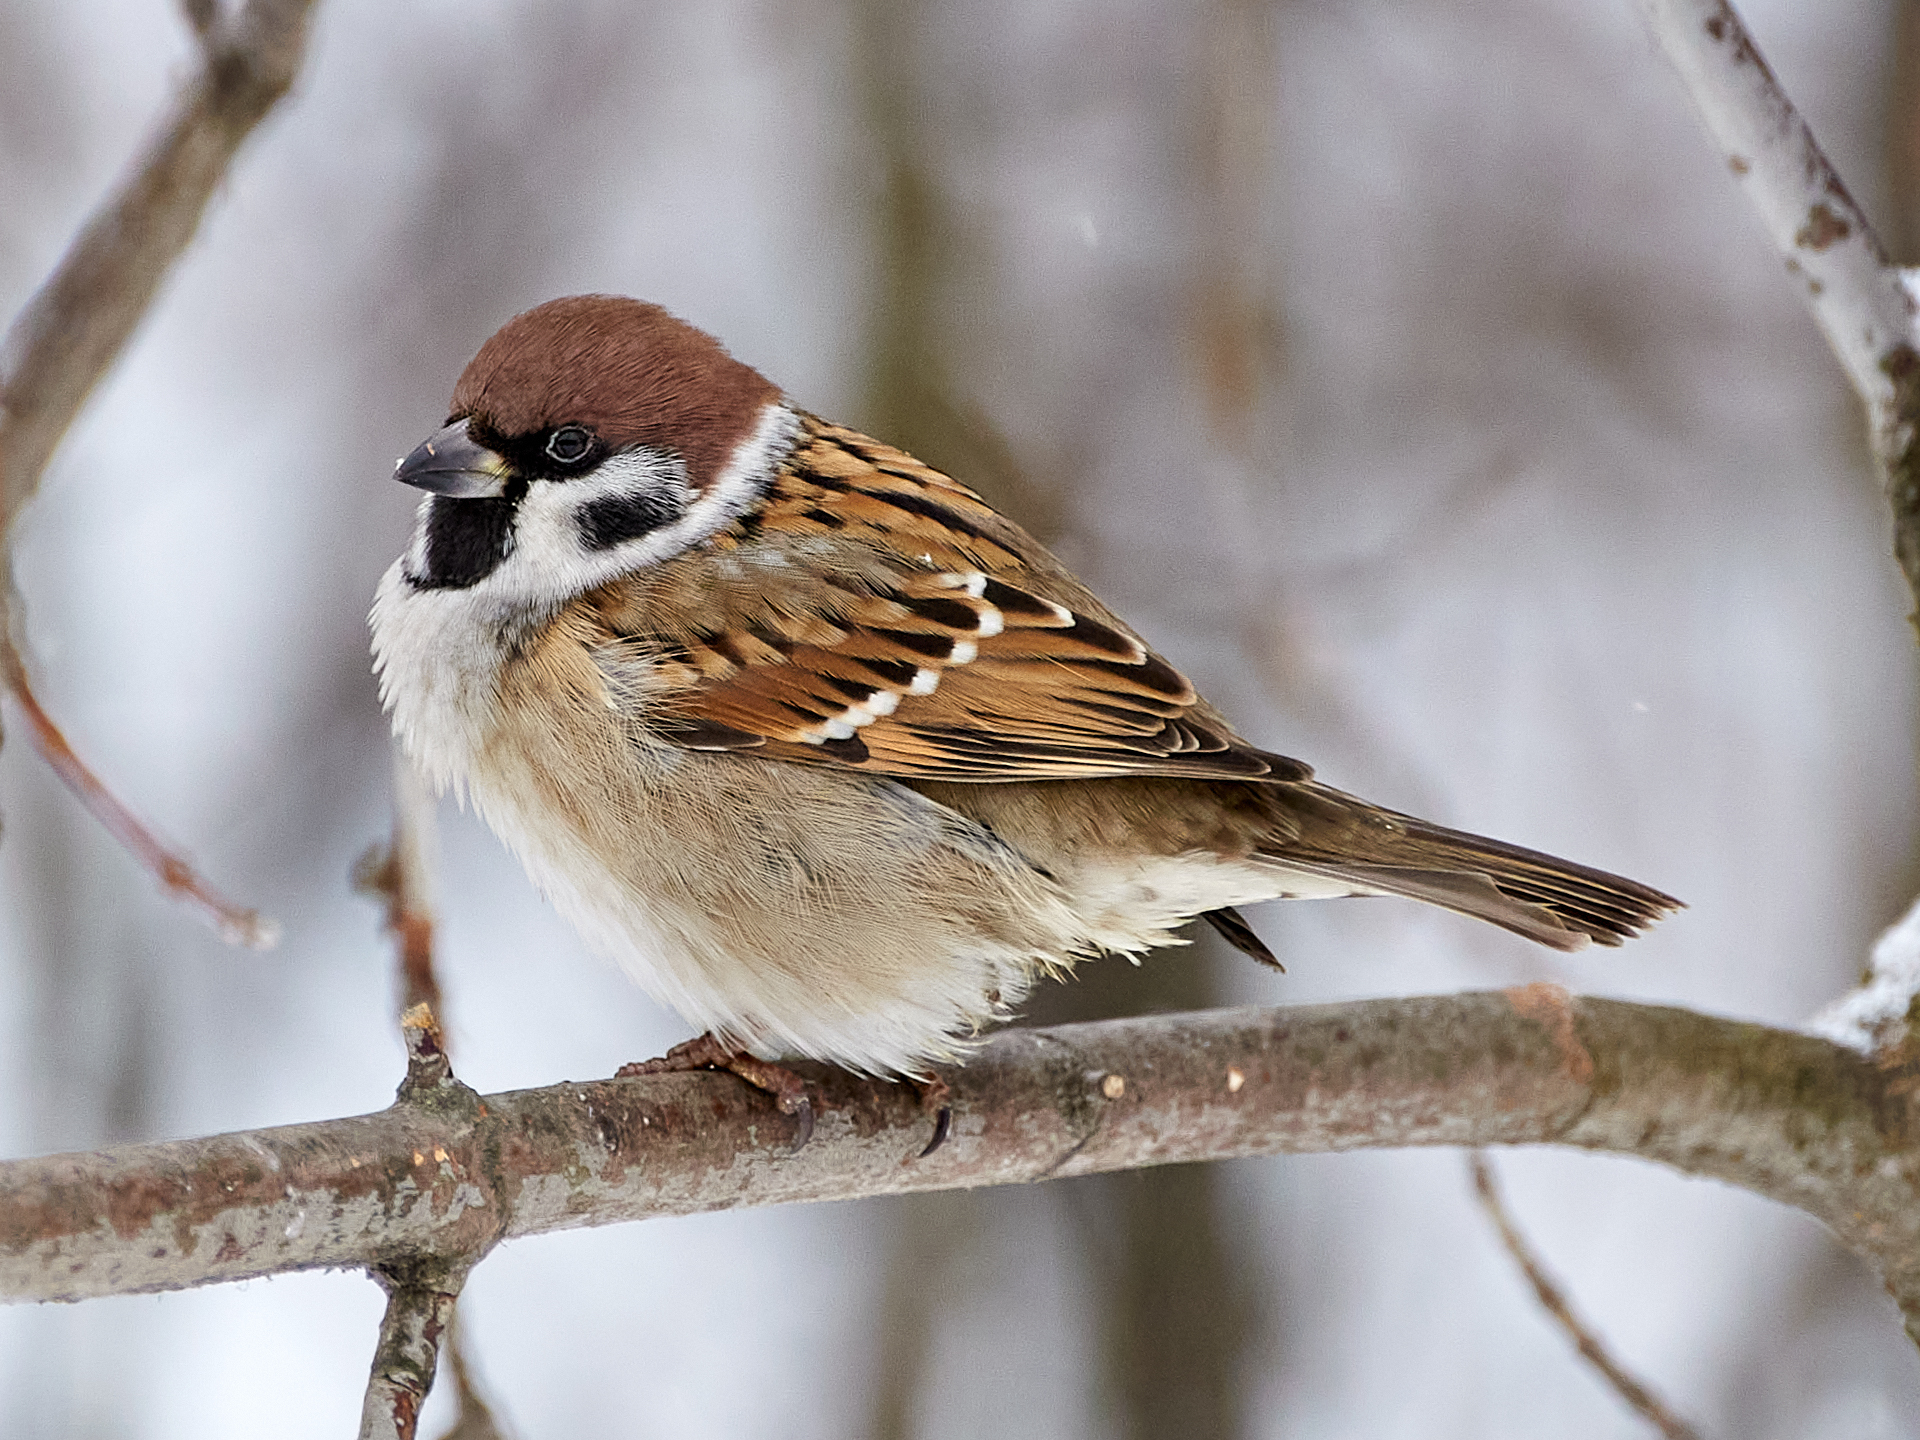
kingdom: Animalia
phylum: Chordata
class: Aves
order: Passeriformes
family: Passeridae
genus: Passer
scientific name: Passer montanus
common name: Eurasian tree sparrow
